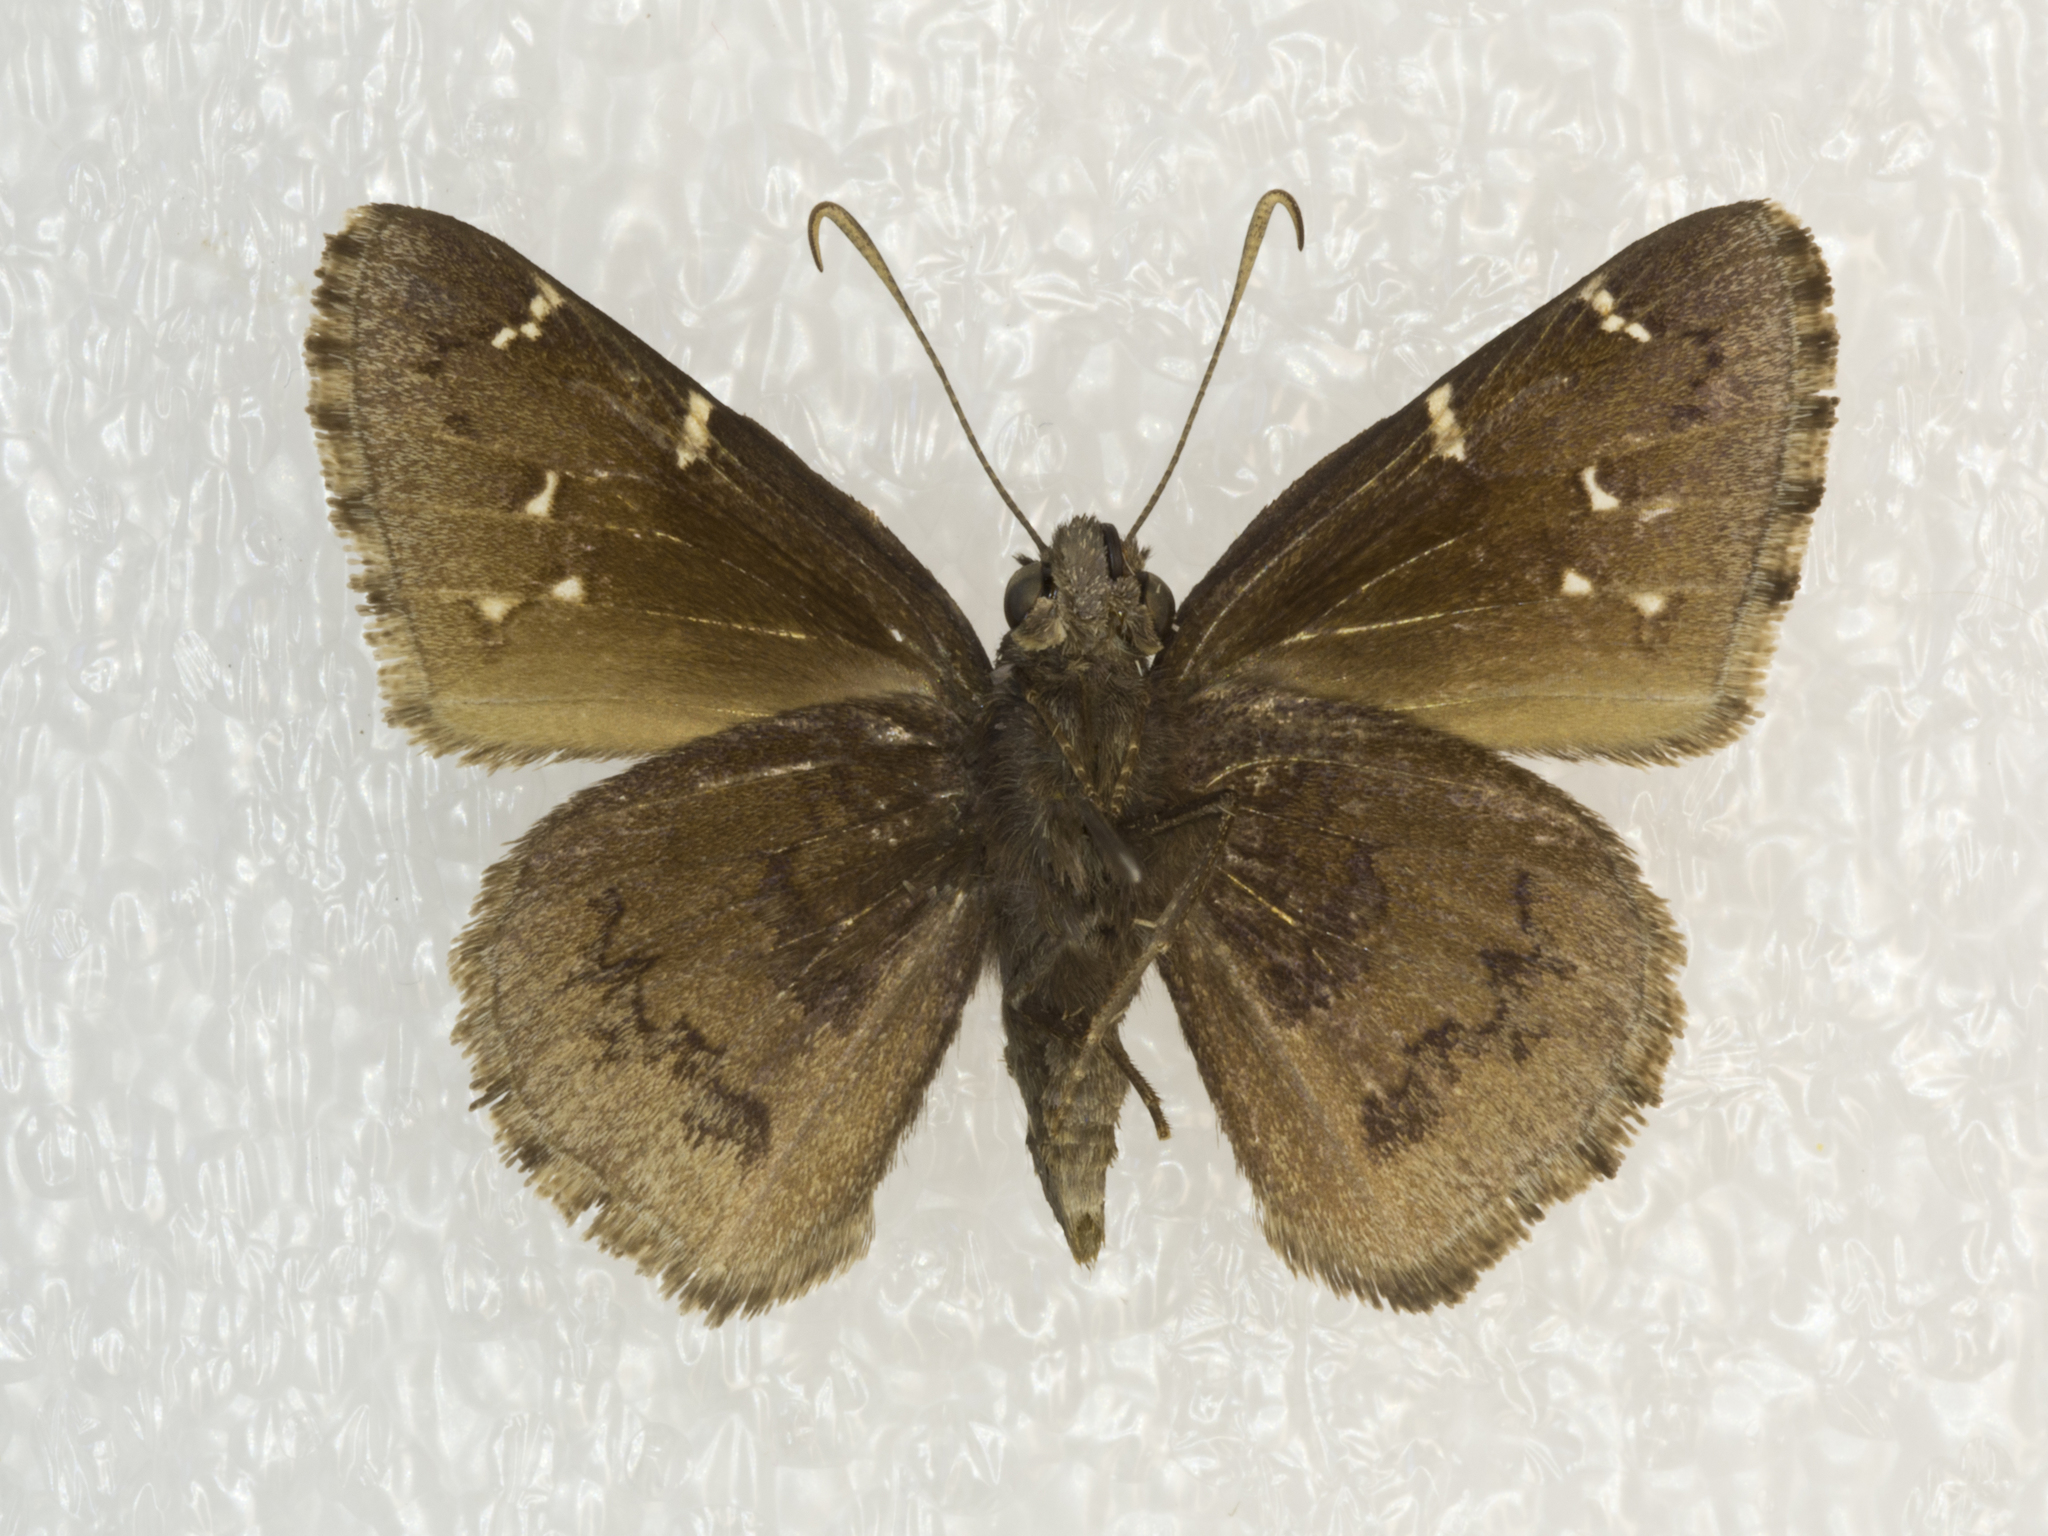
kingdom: Animalia
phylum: Arthropoda
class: Insecta
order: Lepidoptera
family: Hesperiidae
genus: Thorybes
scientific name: Thorybes pylades
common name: Northern cloudywing
